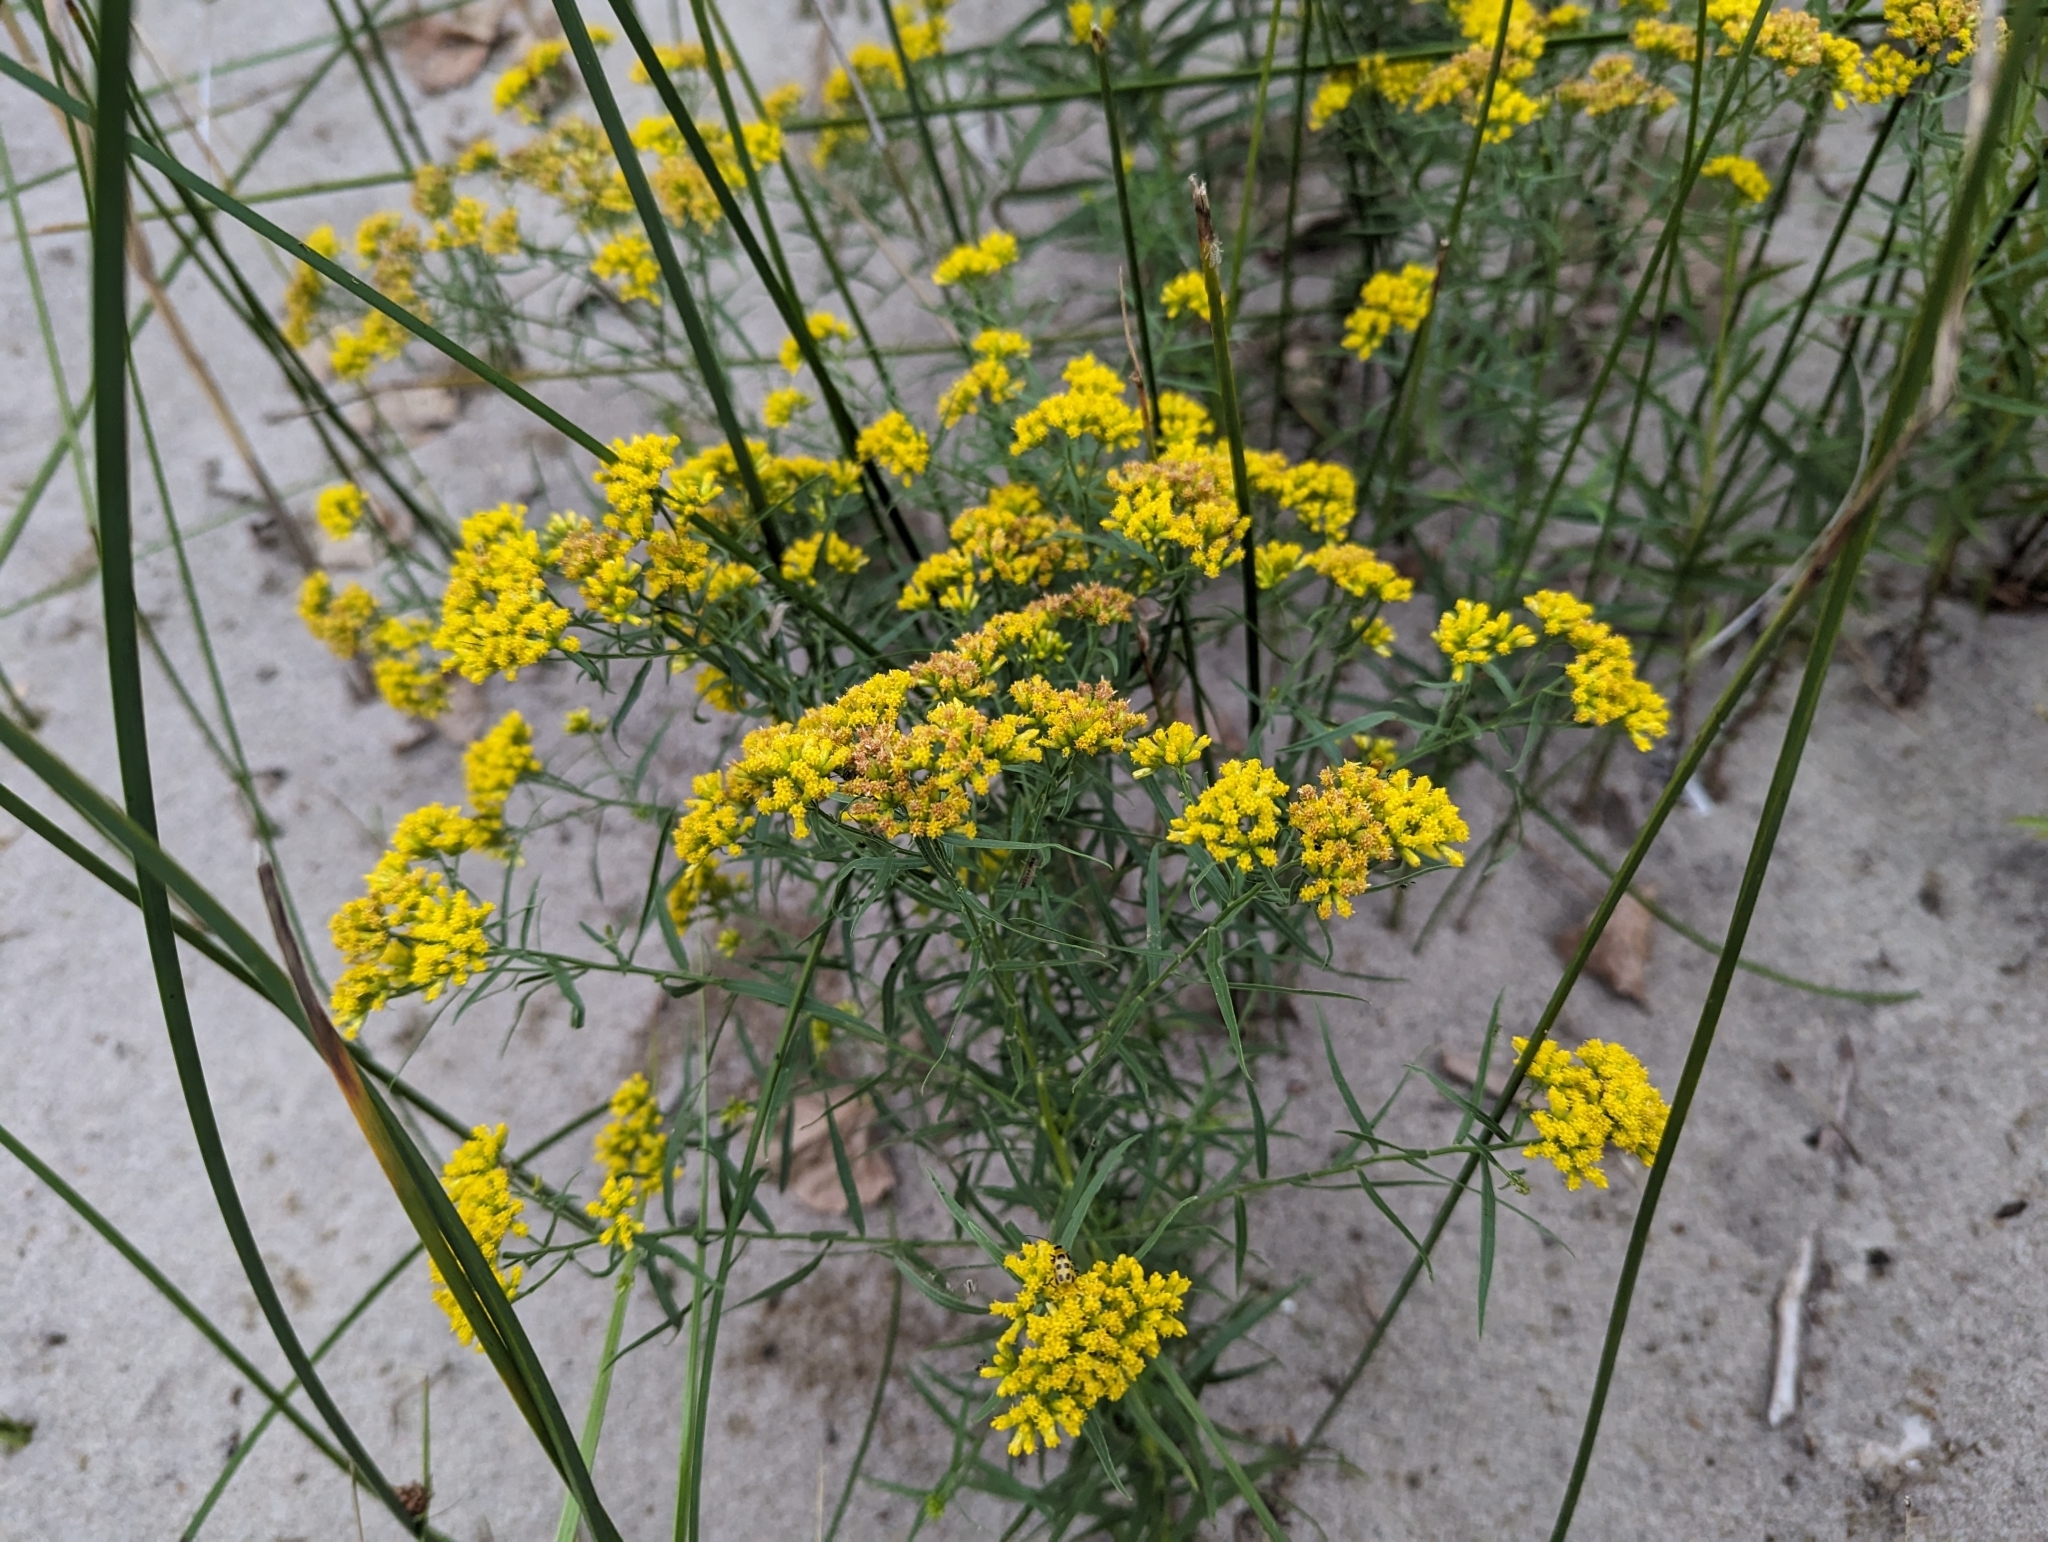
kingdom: Plantae
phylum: Tracheophyta
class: Magnoliopsida
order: Asterales
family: Asteraceae
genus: Euthamia
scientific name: Euthamia graminifolia
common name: Common goldentop
